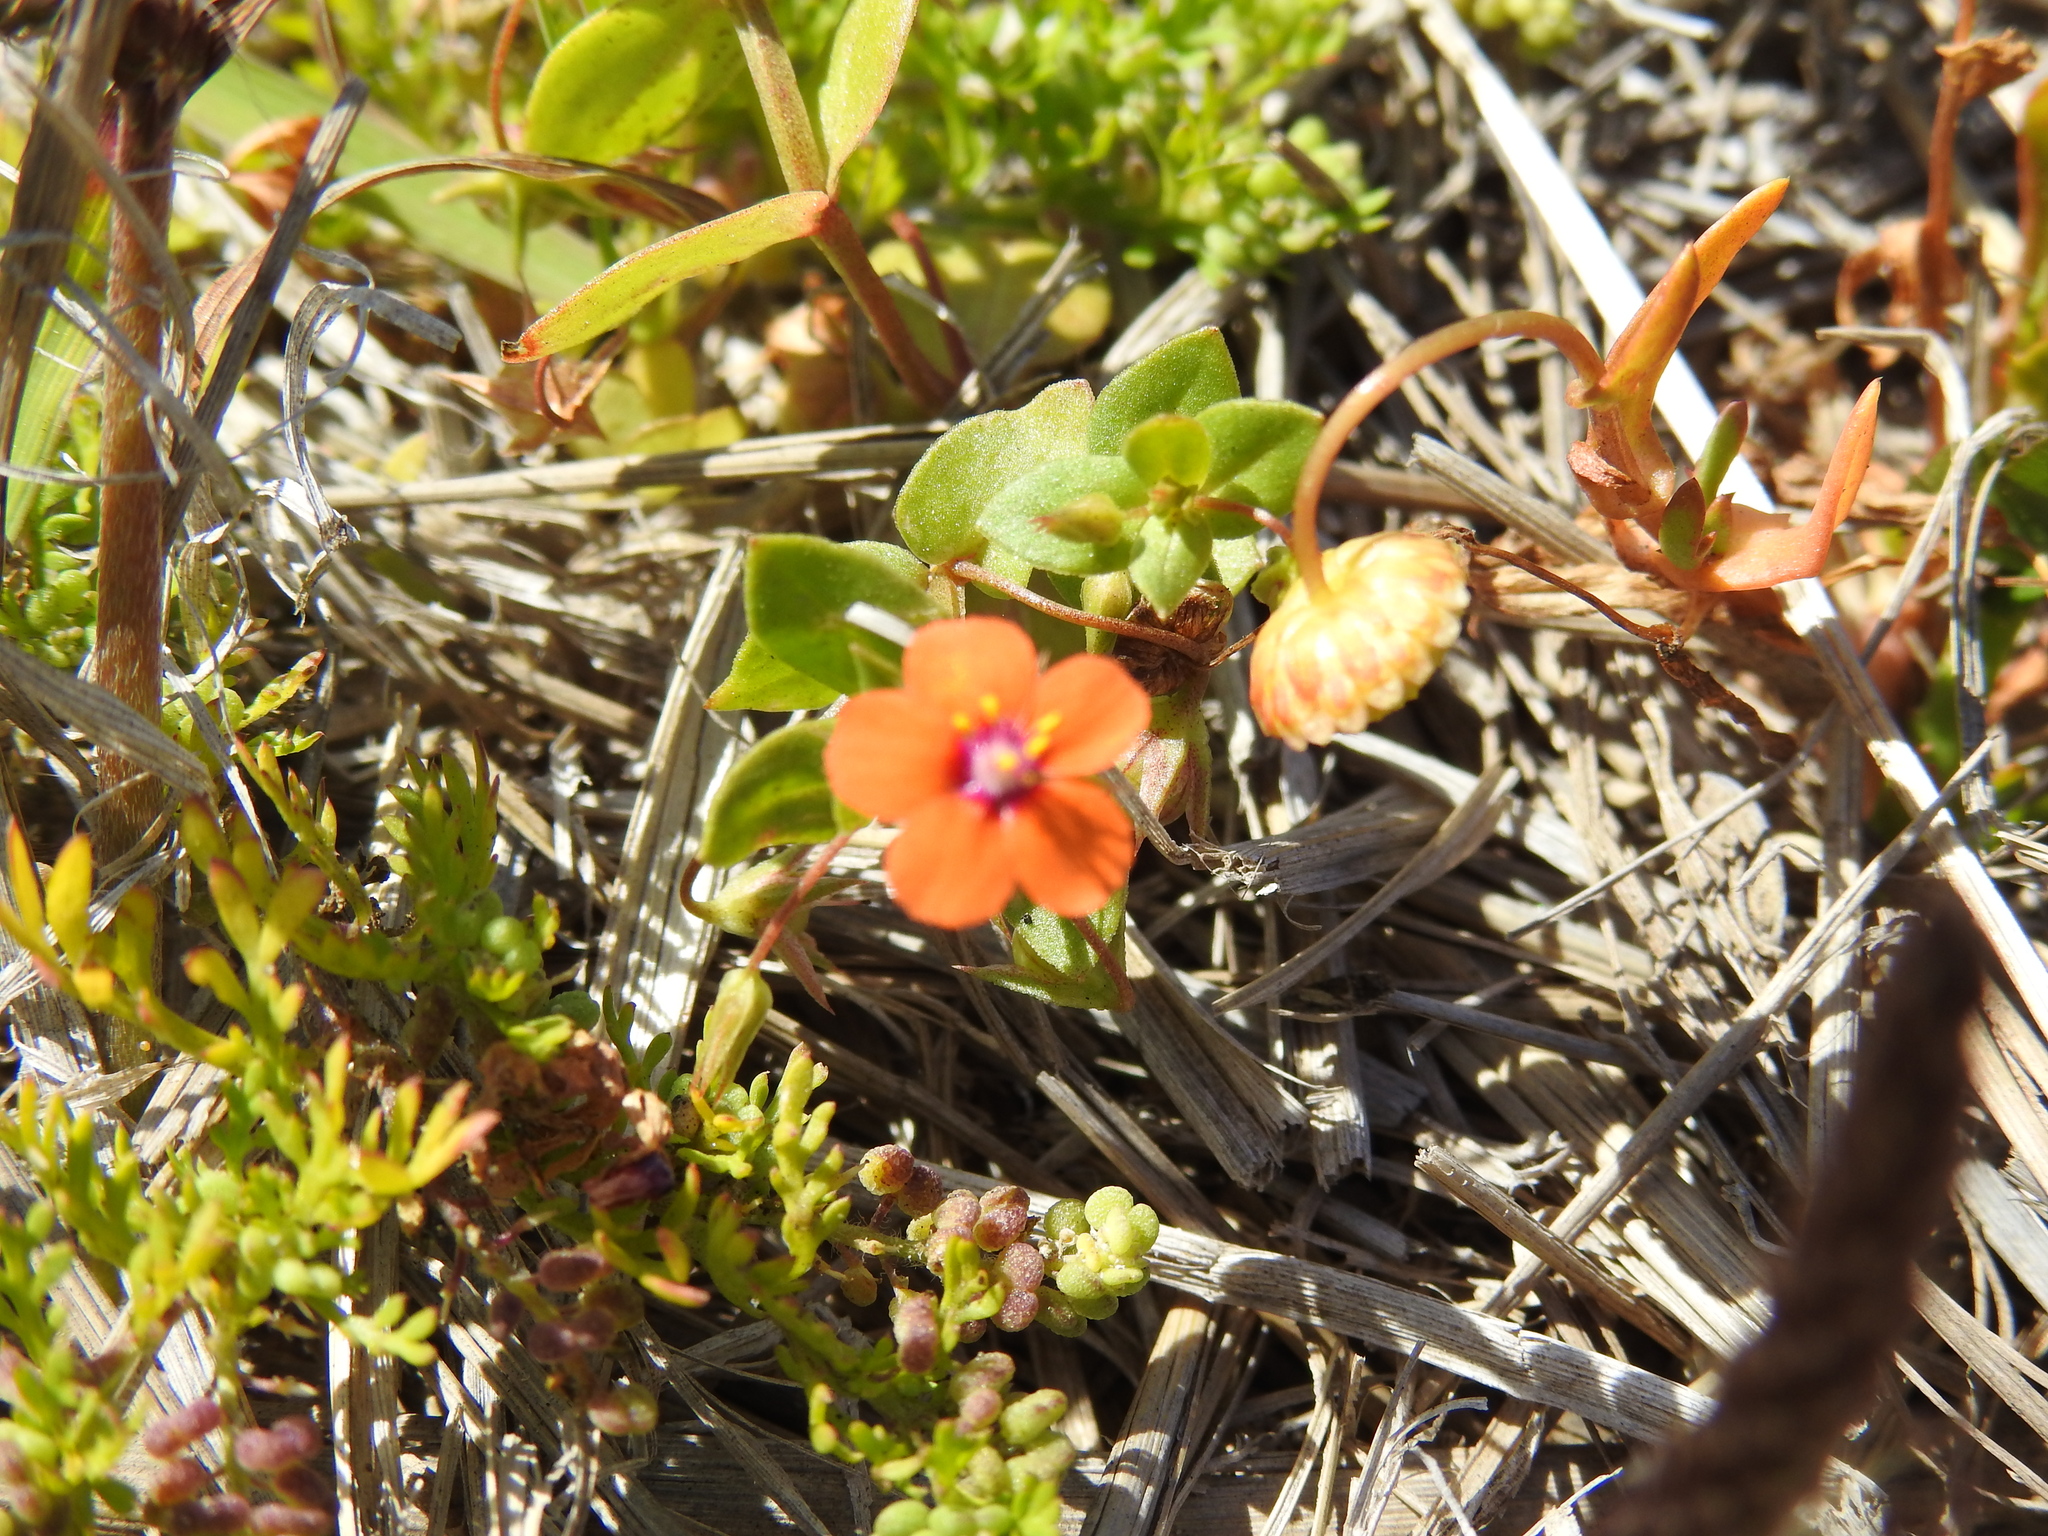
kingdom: Plantae
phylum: Tracheophyta
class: Magnoliopsida
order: Ericales
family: Primulaceae
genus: Lysimachia
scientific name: Lysimachia arvensis
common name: Scarlet pimpernel
